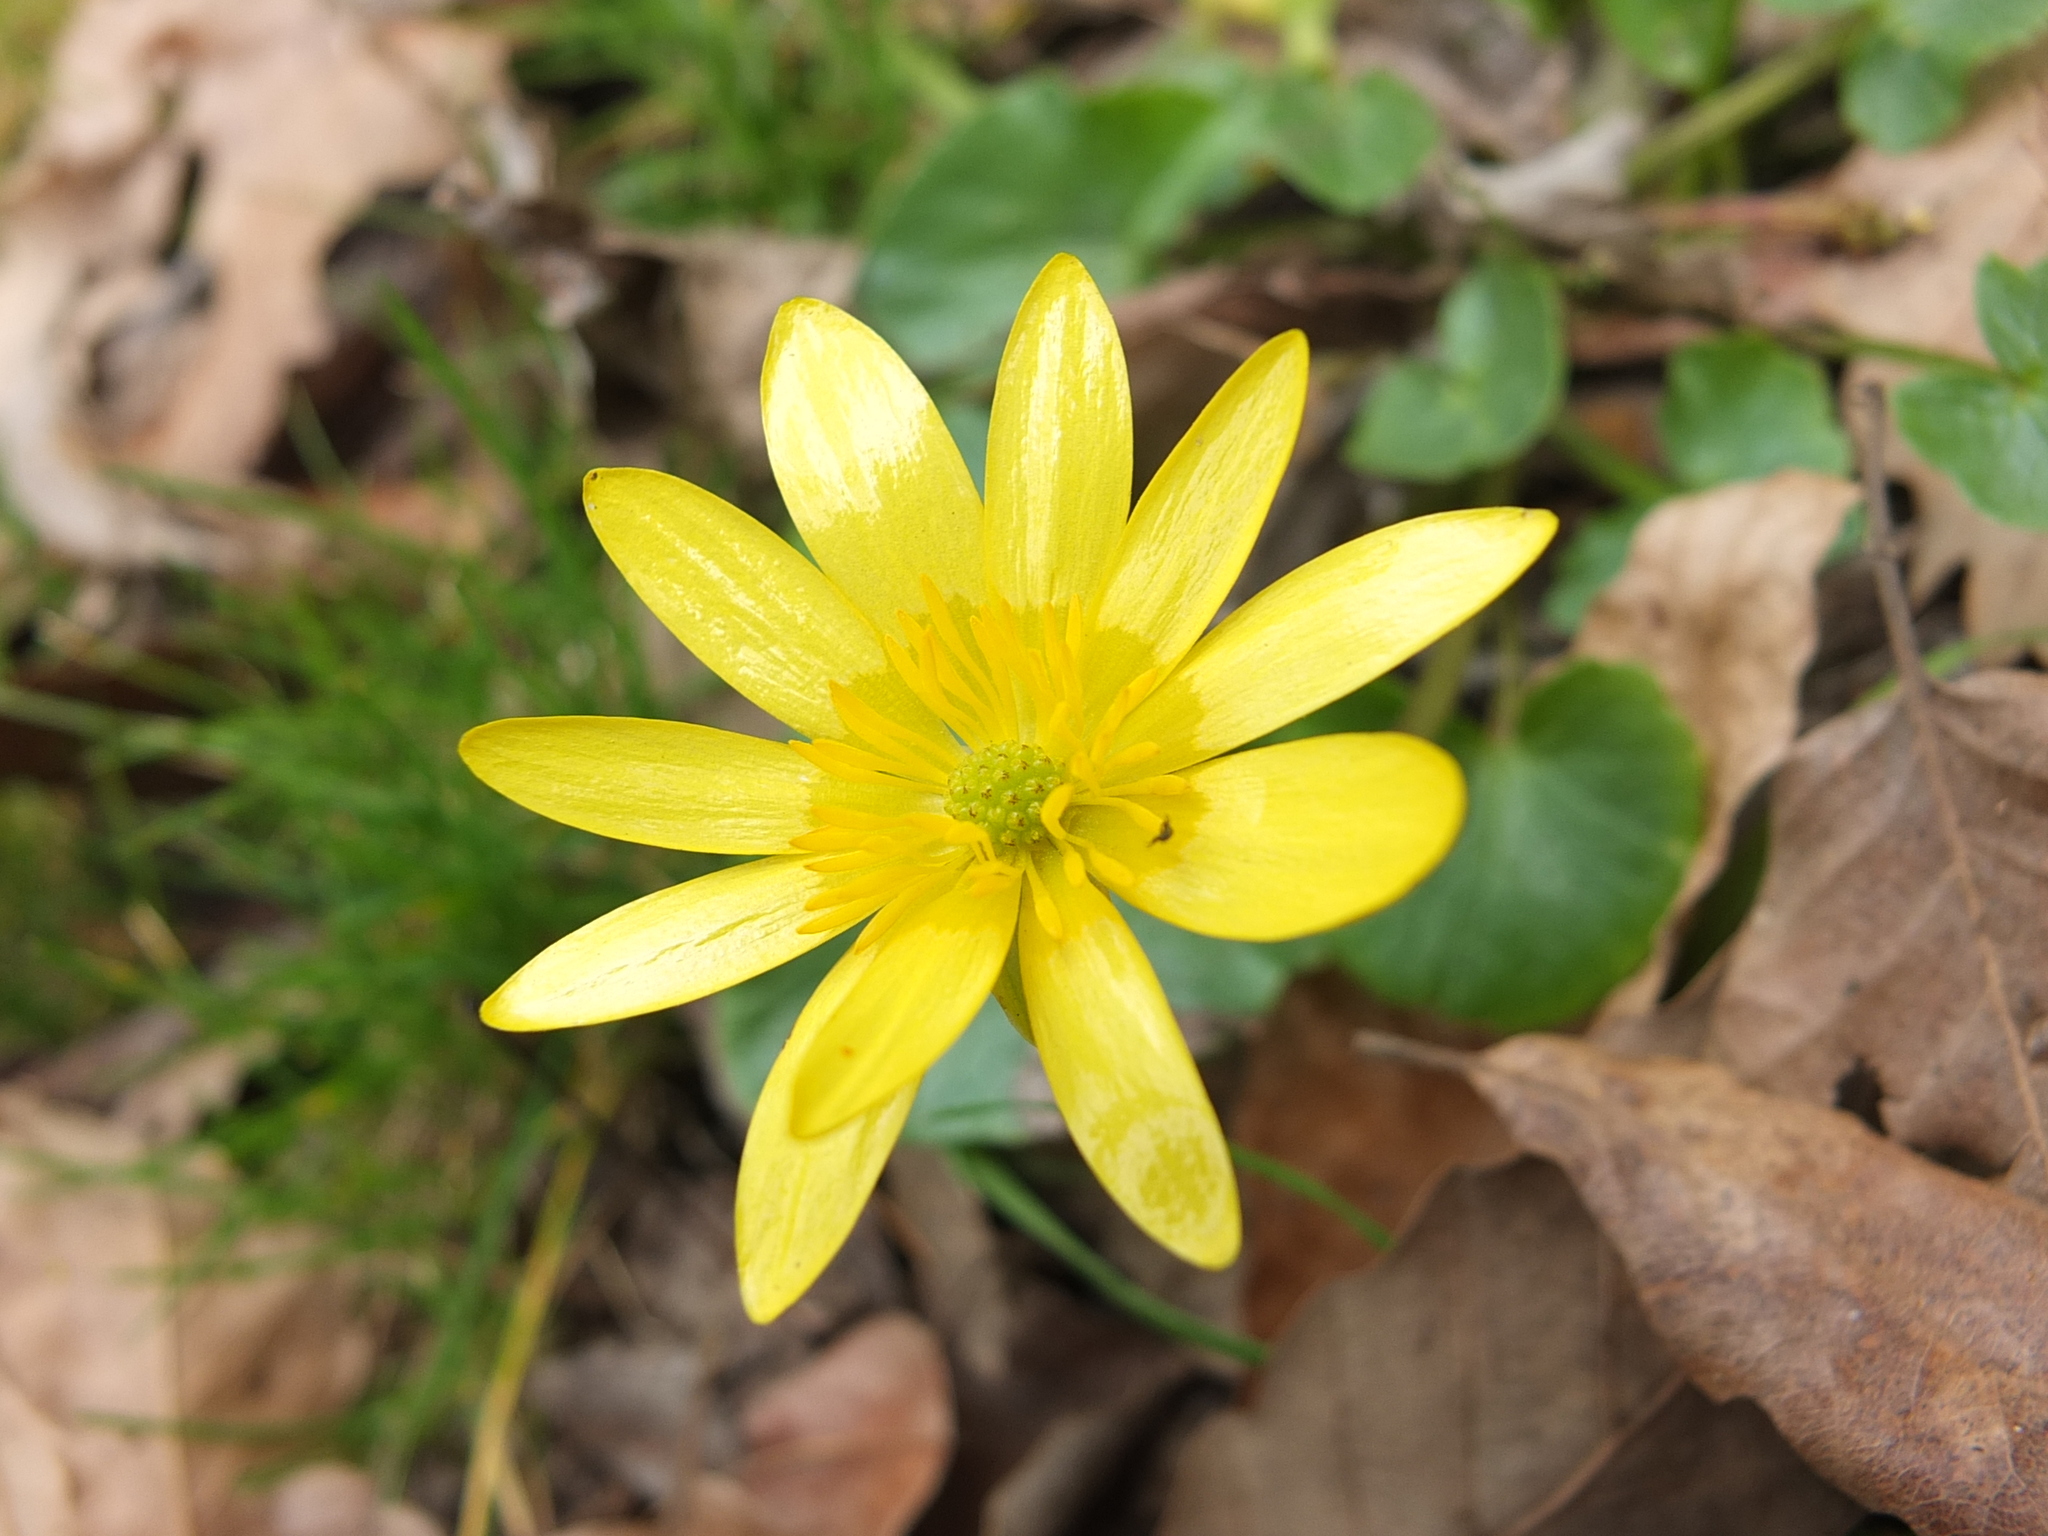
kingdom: Plantae
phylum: Tracheophyta
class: Magnoliopsida
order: Ranunculales
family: Ranunculaceae
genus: Ficaria
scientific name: Ficaria verna
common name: Lesser celandine
